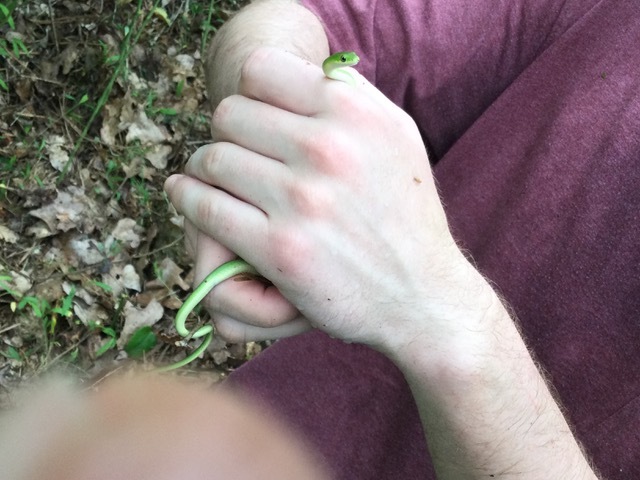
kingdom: Animalia
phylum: Chordata
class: Squamata
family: Colubridae
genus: Opheodrys
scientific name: Opheodrys aestivus
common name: Rough greensnake
